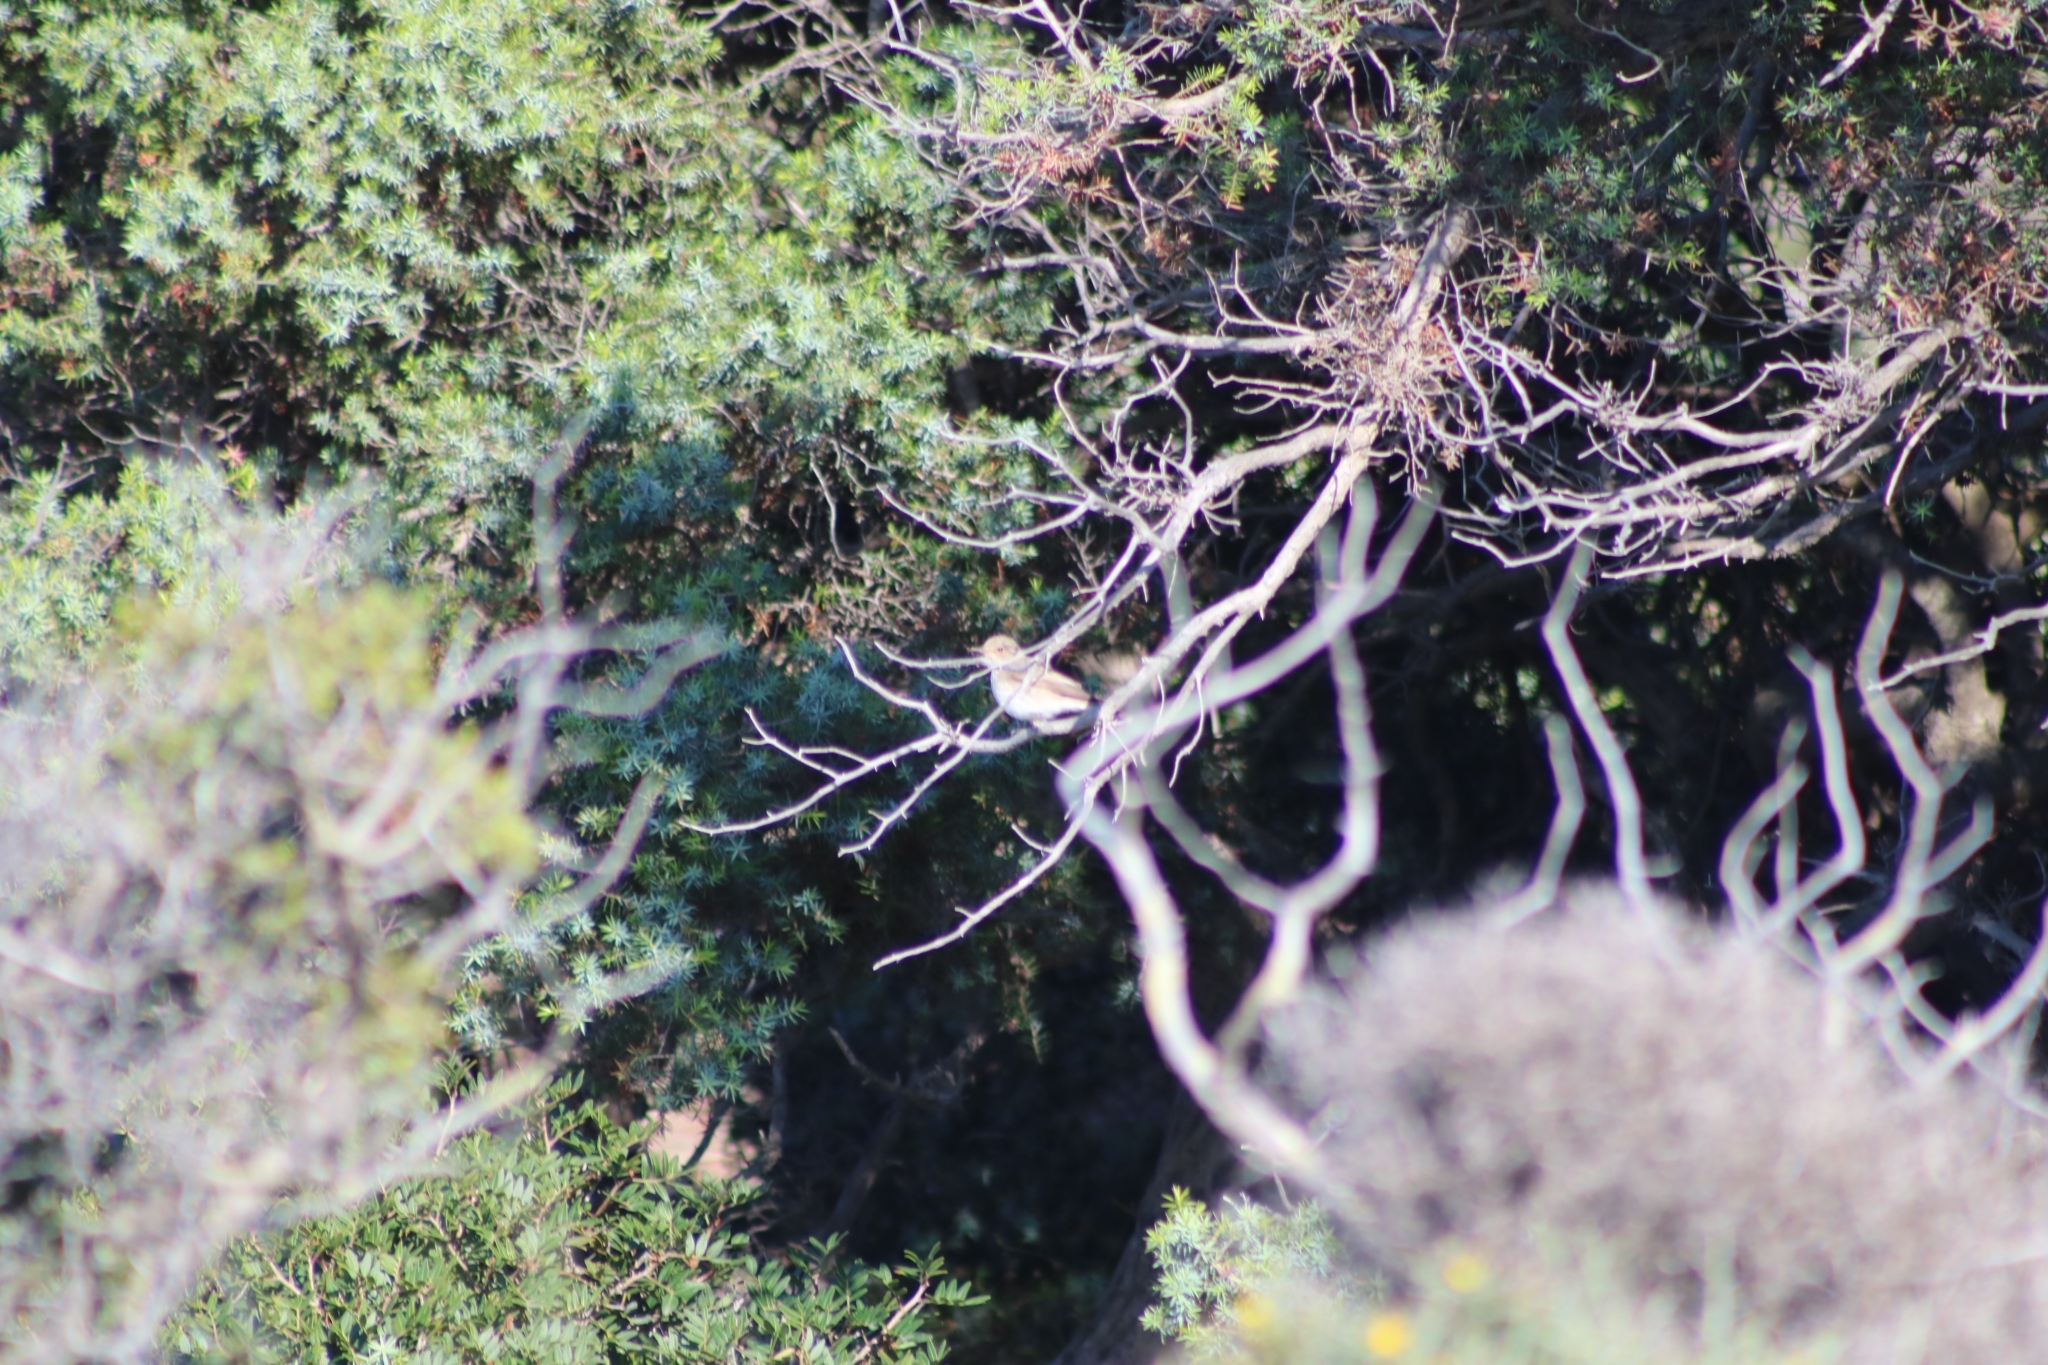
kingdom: Animalia
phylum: Chordata
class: Aves
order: Passeriformes
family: Muscicapidae
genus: Muscicapa
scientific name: Muscicapa striata
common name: Spotted flycatcher
